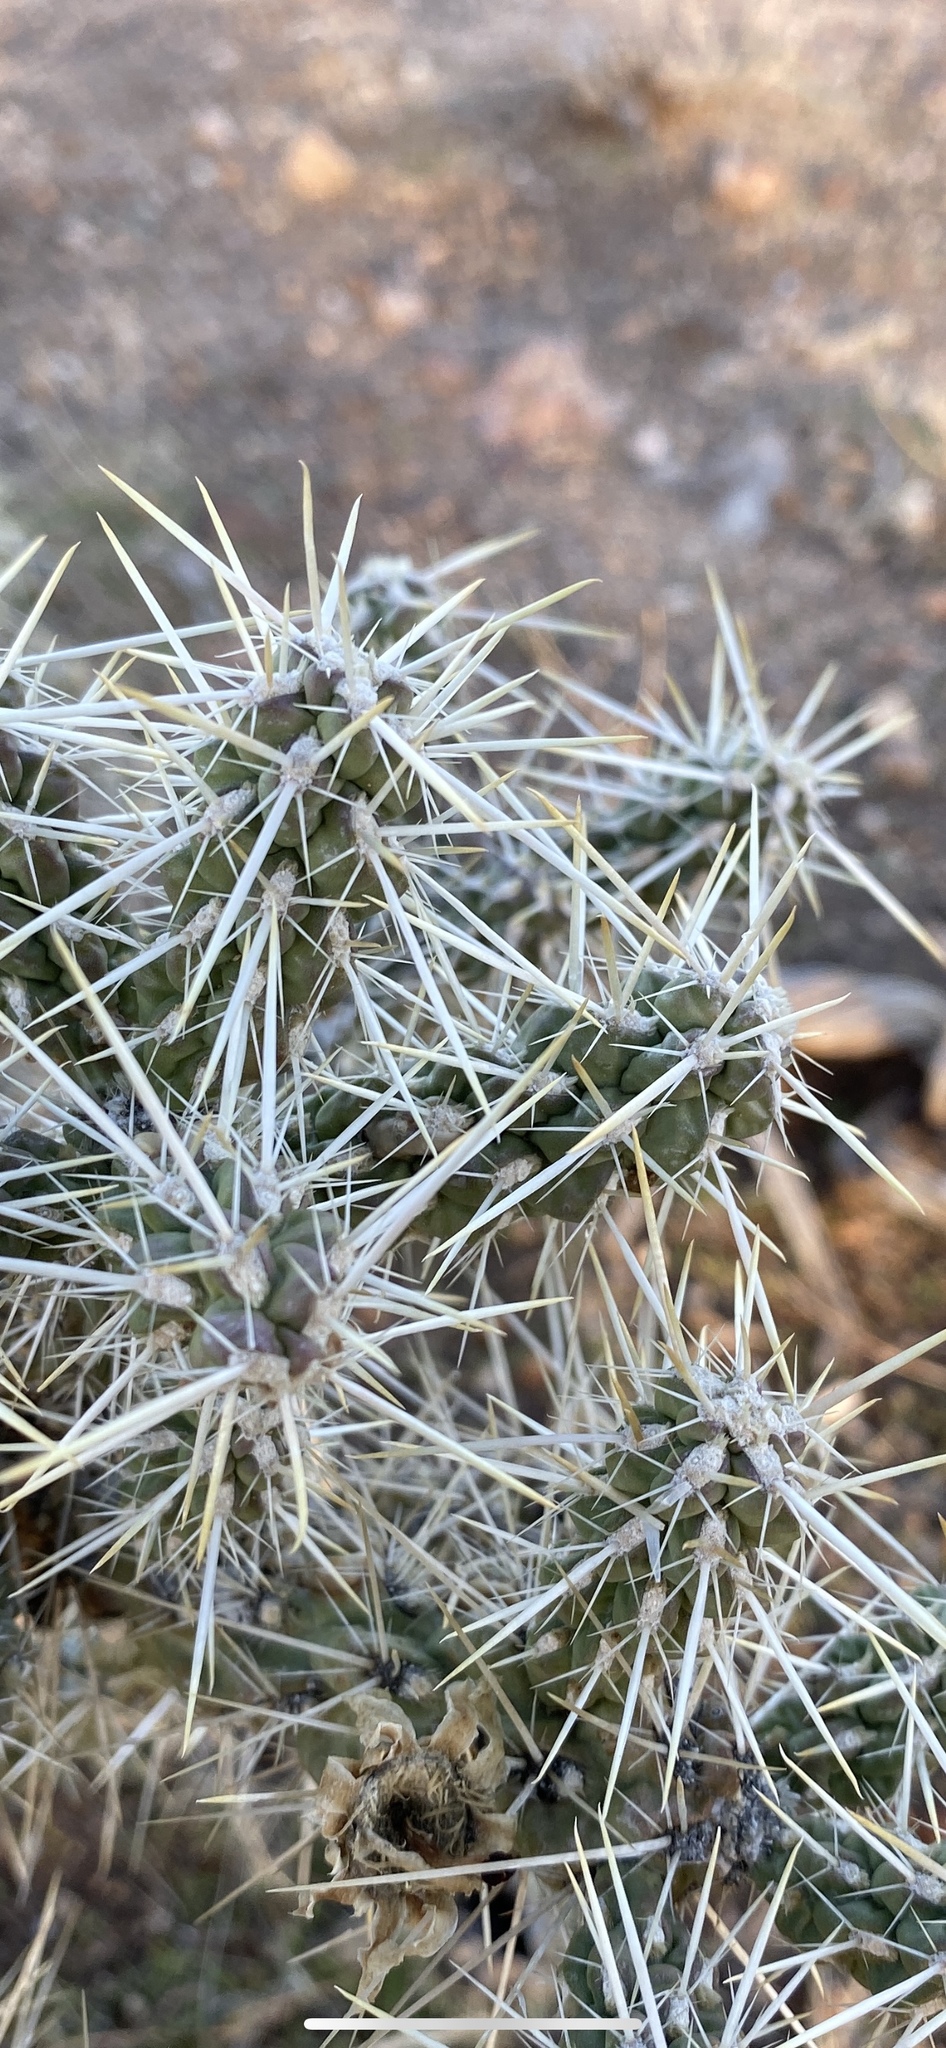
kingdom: Plantae
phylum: Tracheophyta
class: Magnoliopsida
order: Caryophyllales
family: Cactaceae
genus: Cylindropuntia
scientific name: Cylindropuntia whipplei
